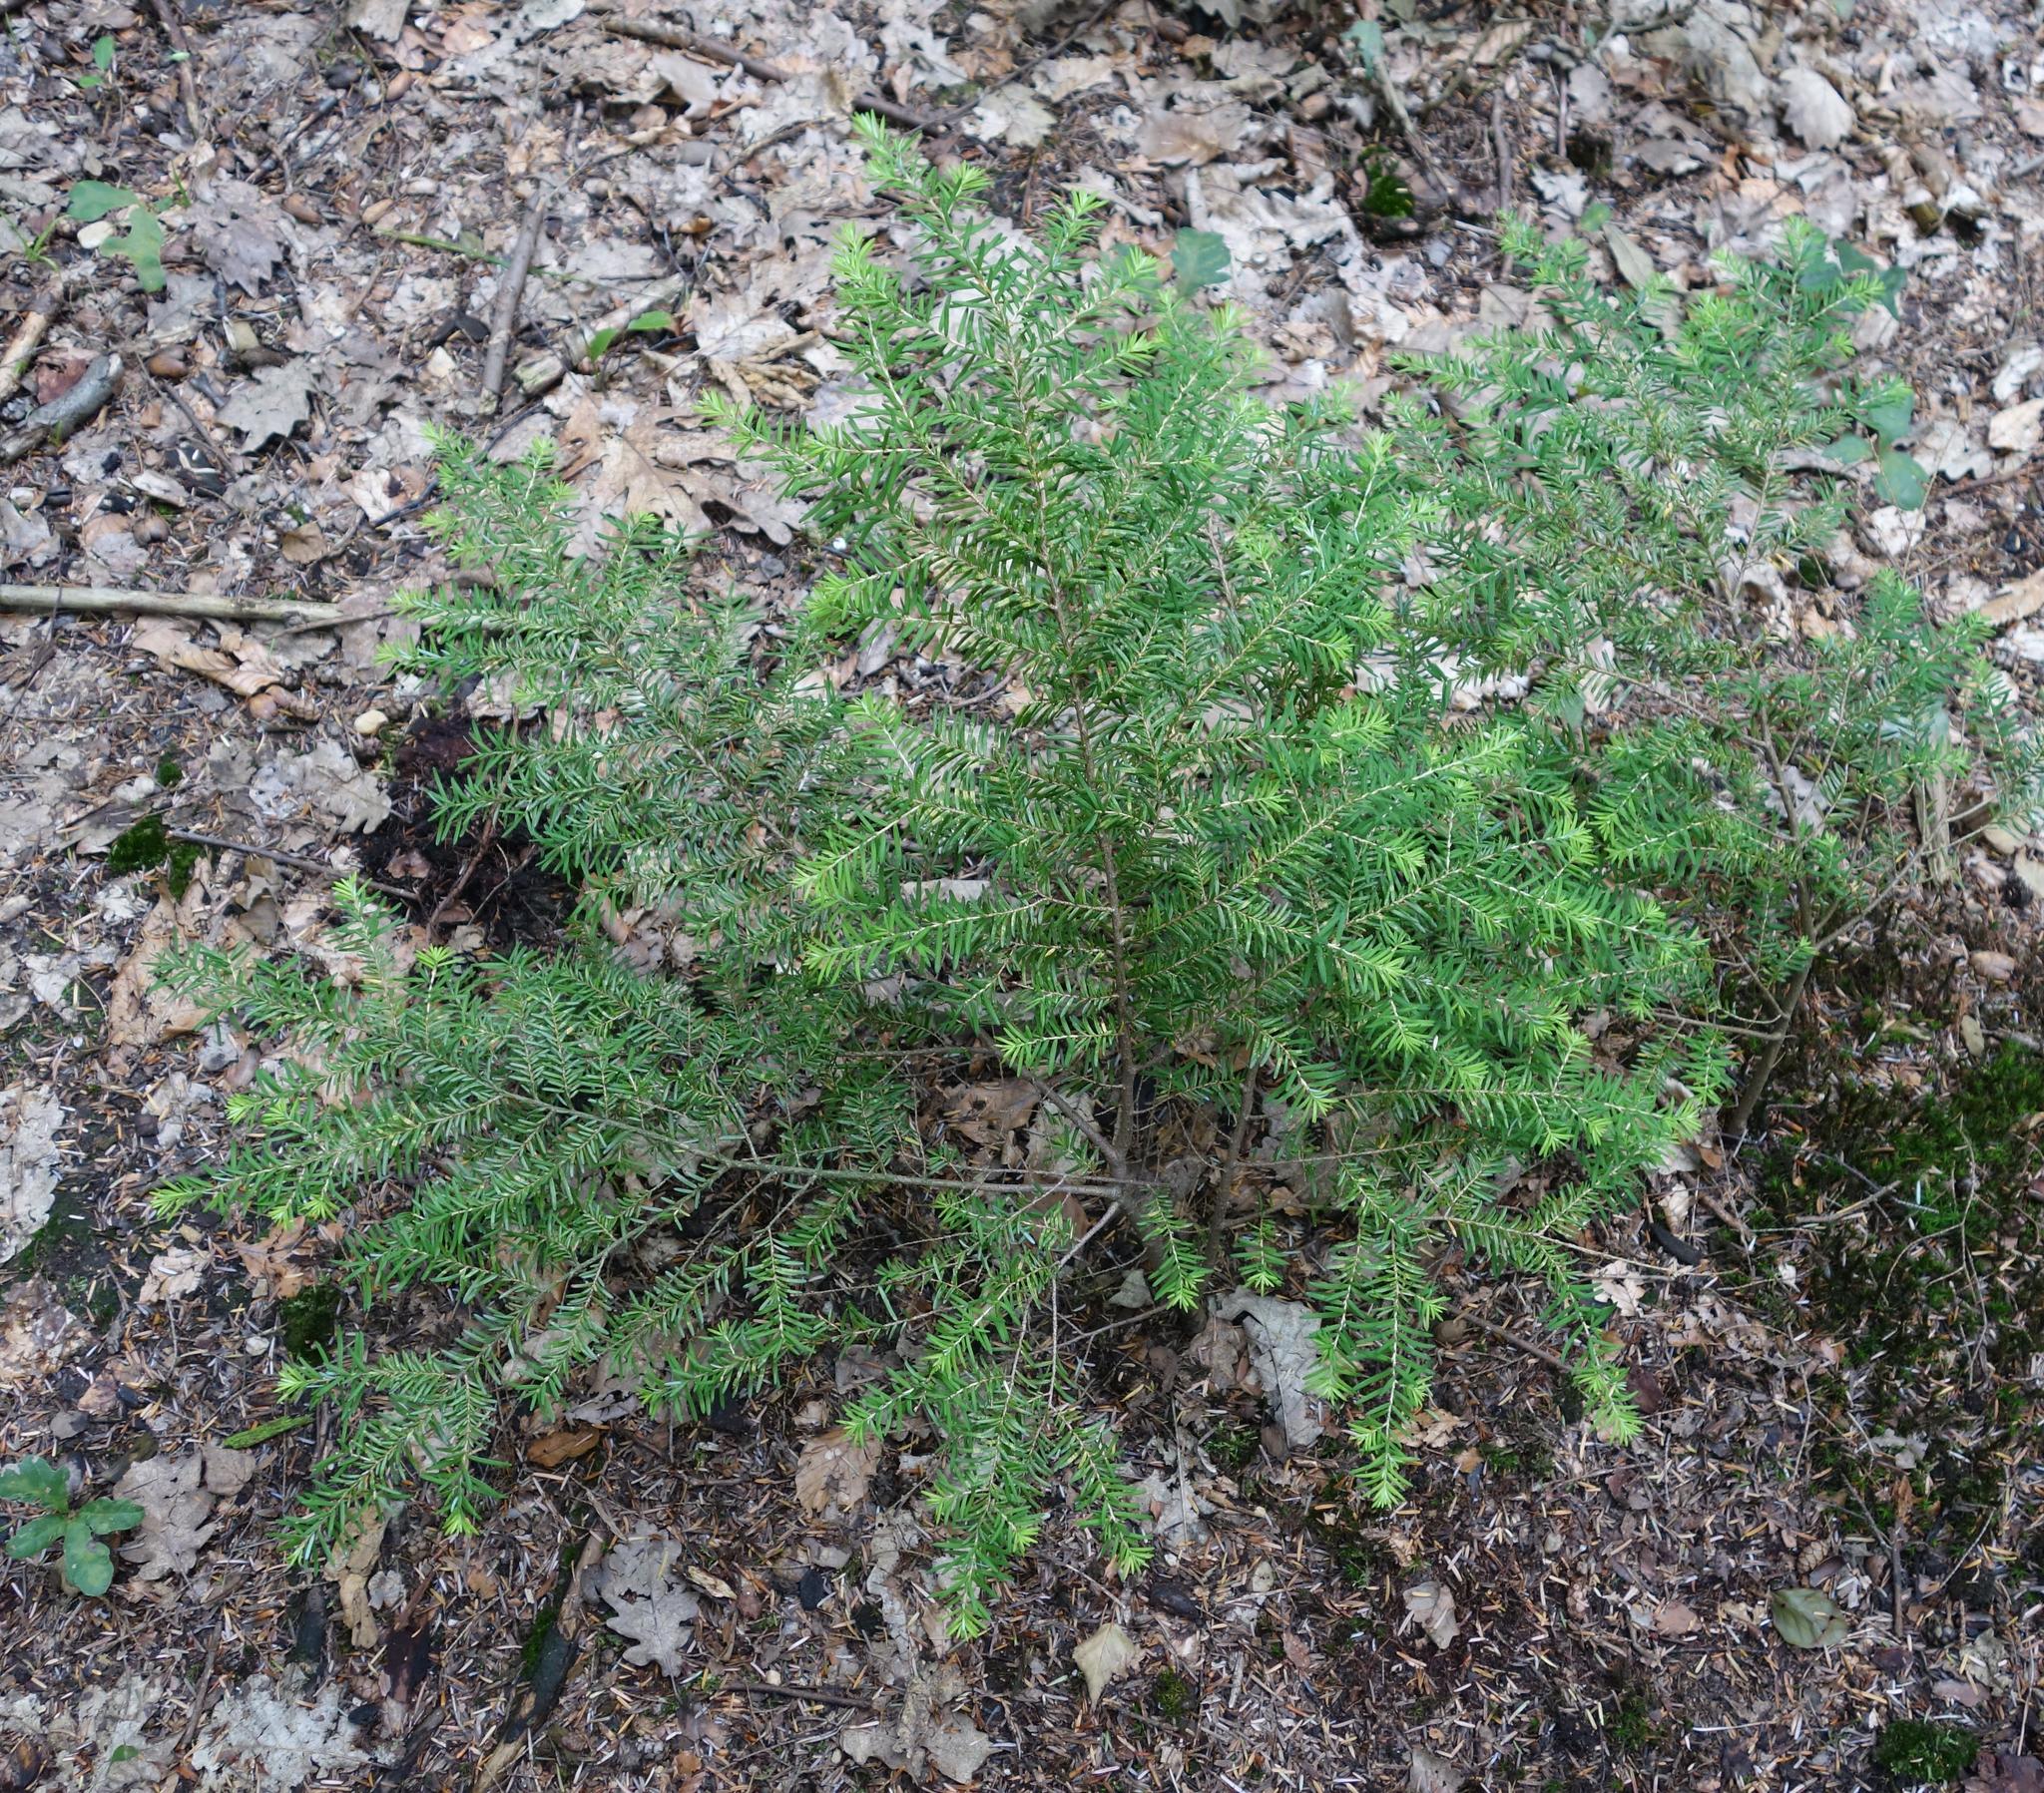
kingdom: Plantae
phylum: Tracheophyta
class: Pinopsida
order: Pinales
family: Taxaceae
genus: Taxus
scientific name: Taxus baccata
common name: Yew
